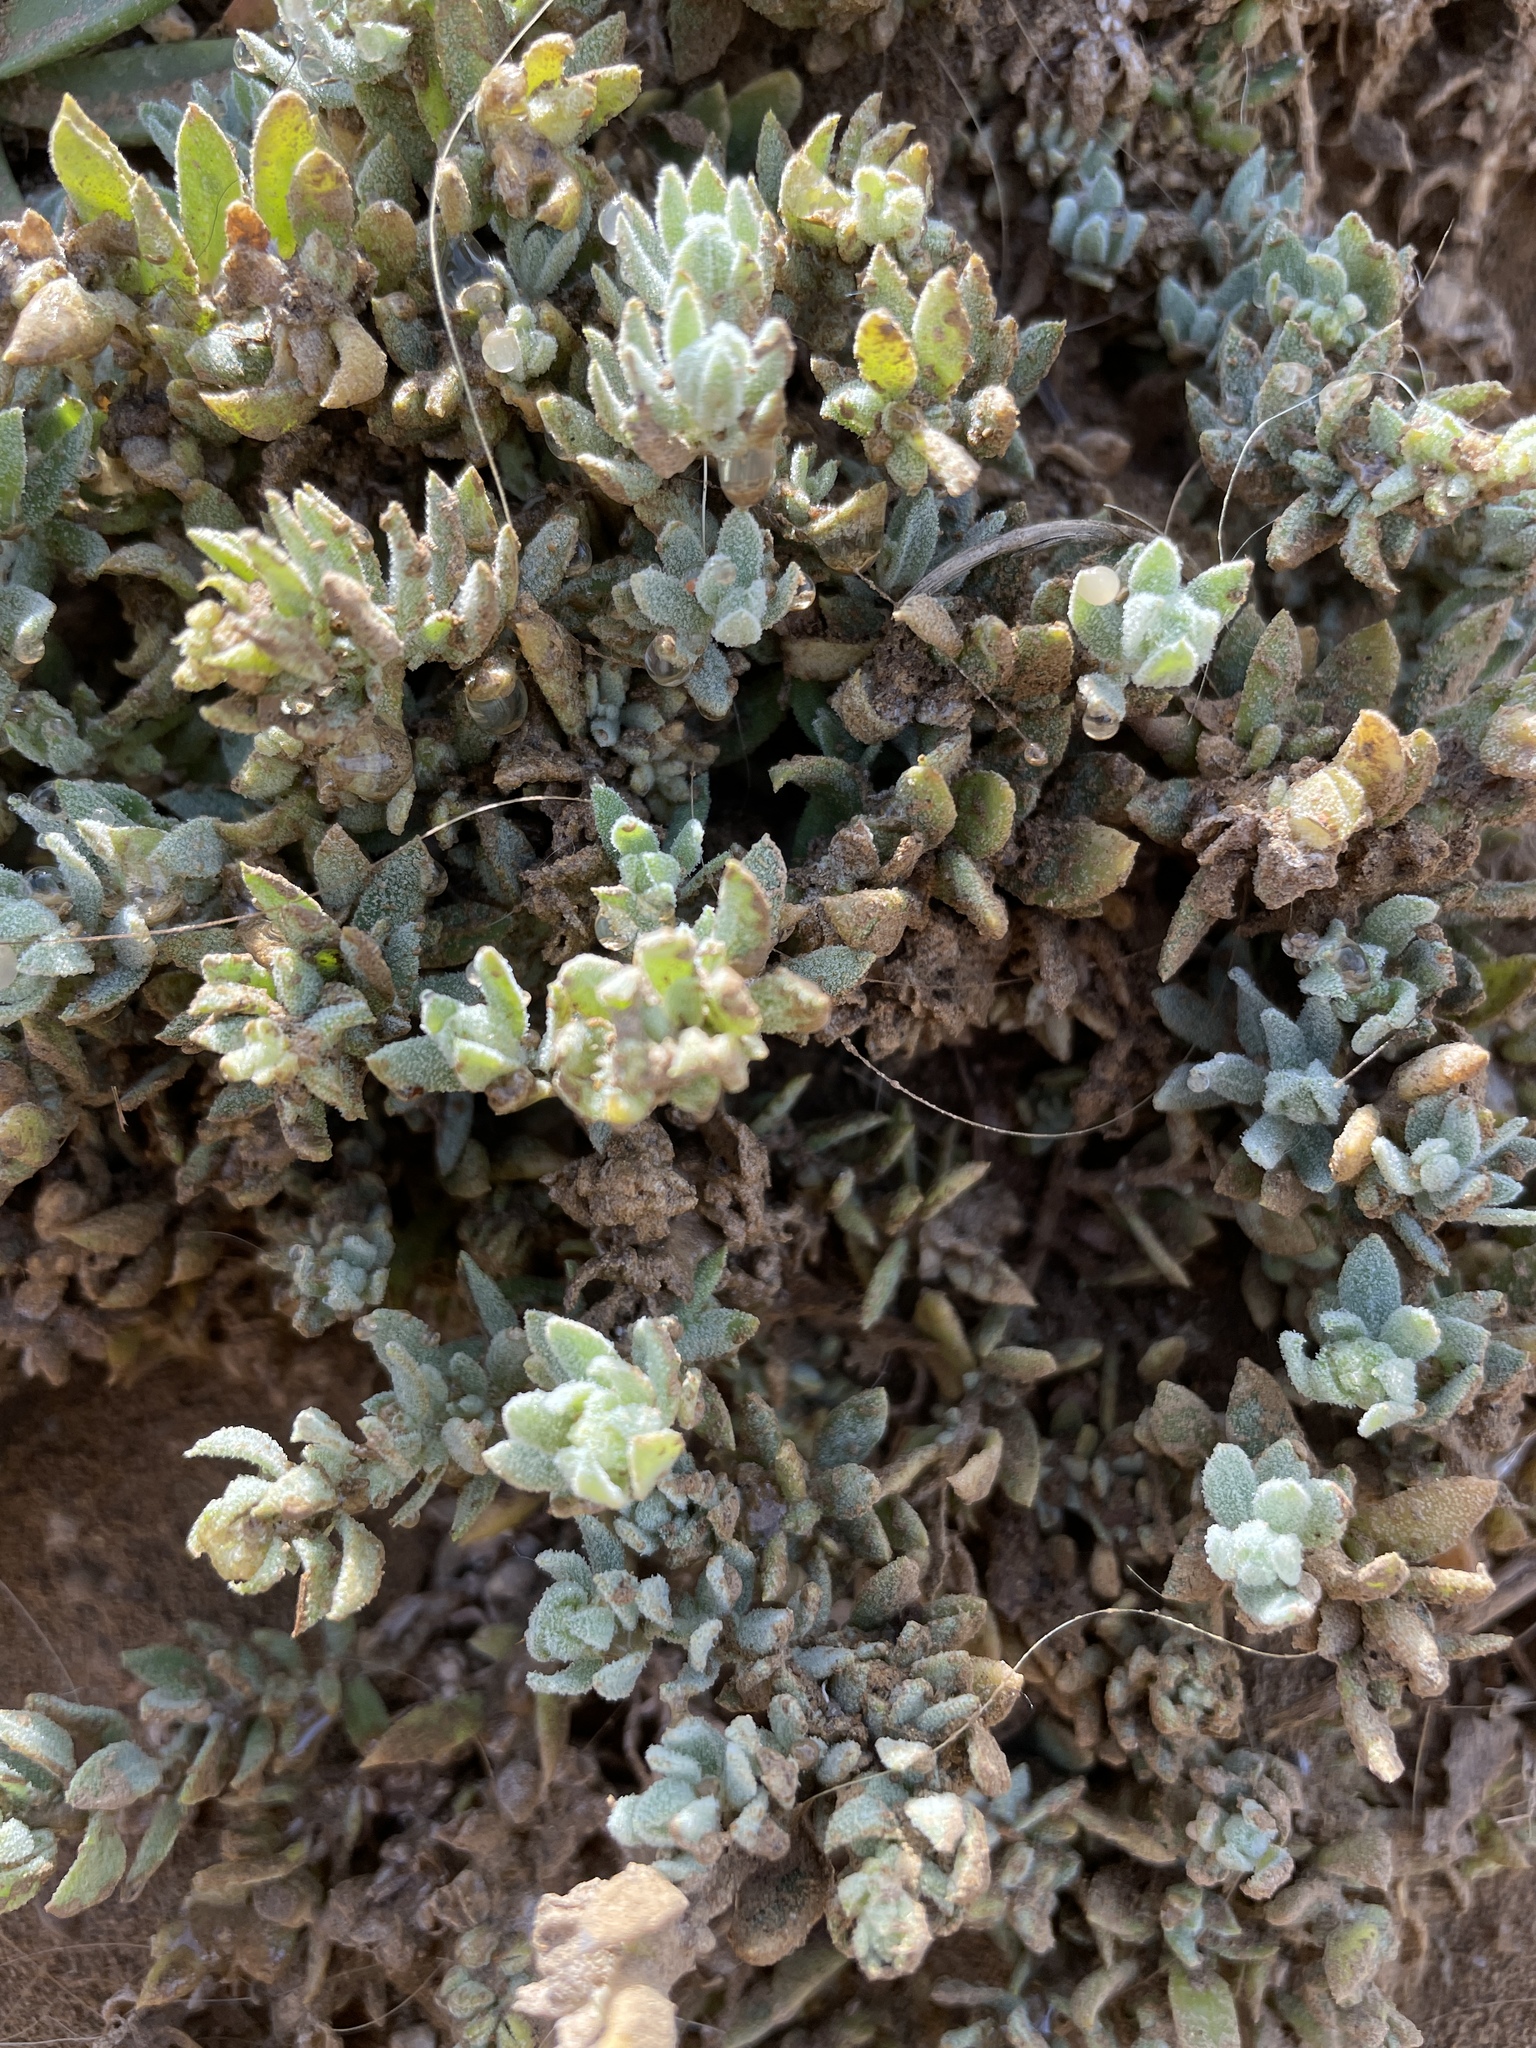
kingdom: Plantae
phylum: Tracheophyta
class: Magnoliopsida
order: Caryophyllales
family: Amaranthaceae
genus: Extriplex
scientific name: Extriplex californica
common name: California saltbush
